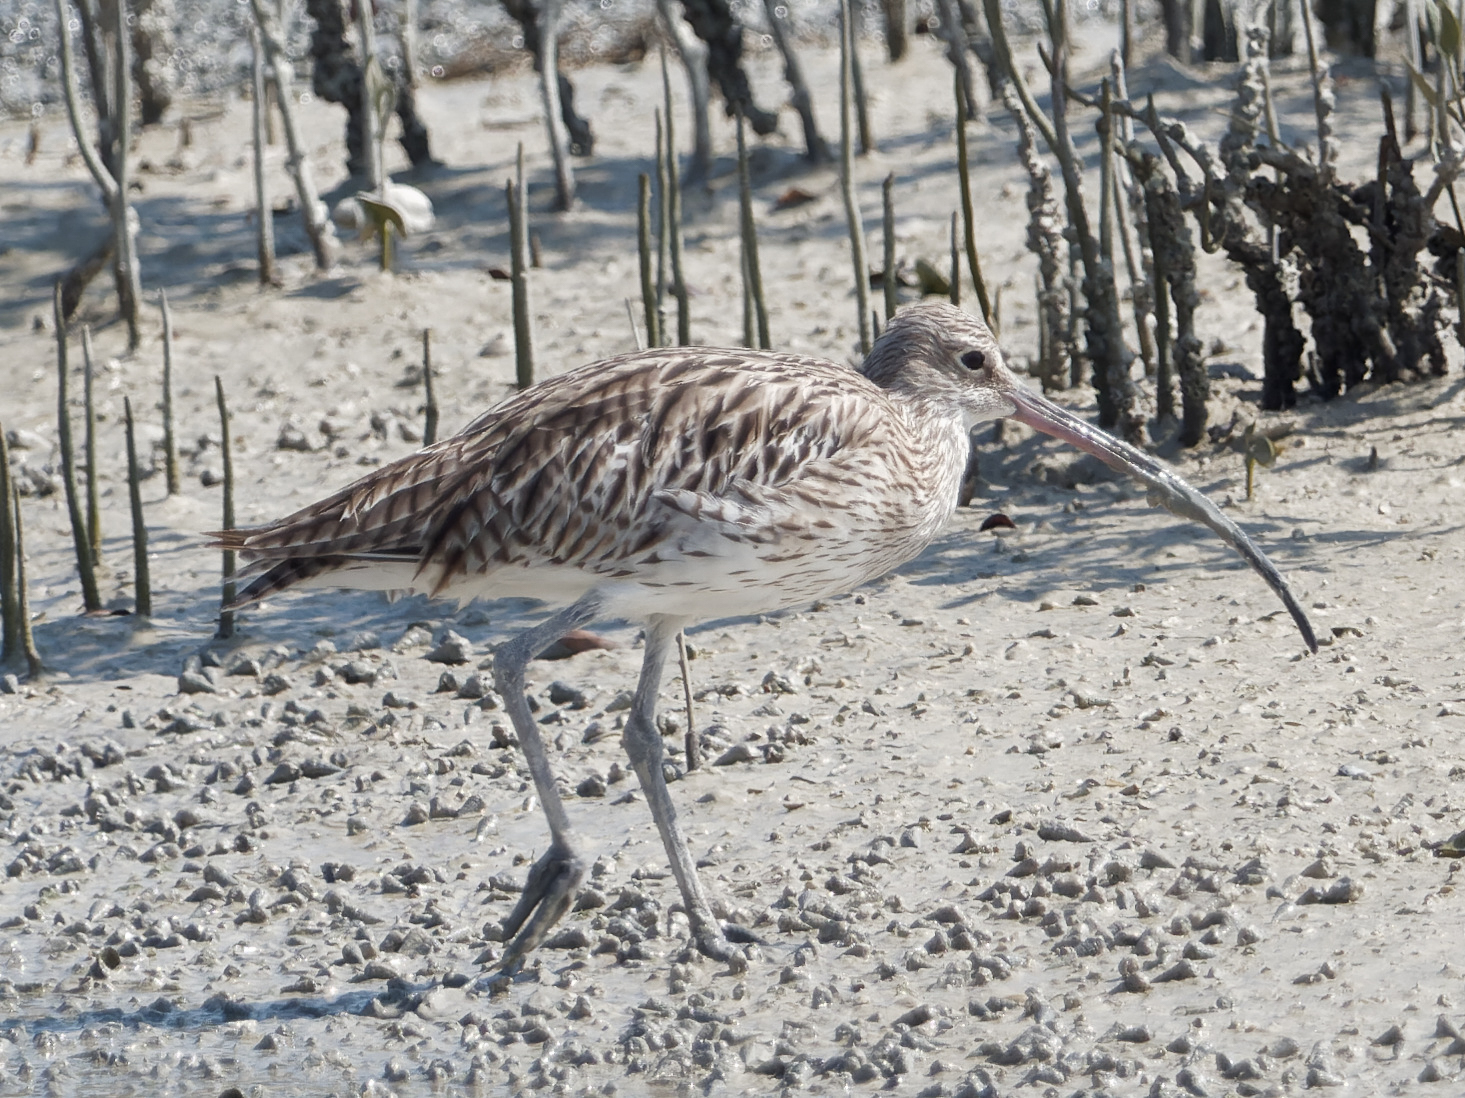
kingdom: Animalia
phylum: Chordata
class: Aves
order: Charadriiformes
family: Scolopacidae
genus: Numenius
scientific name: Numenius arquata
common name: Eurasian curlew
